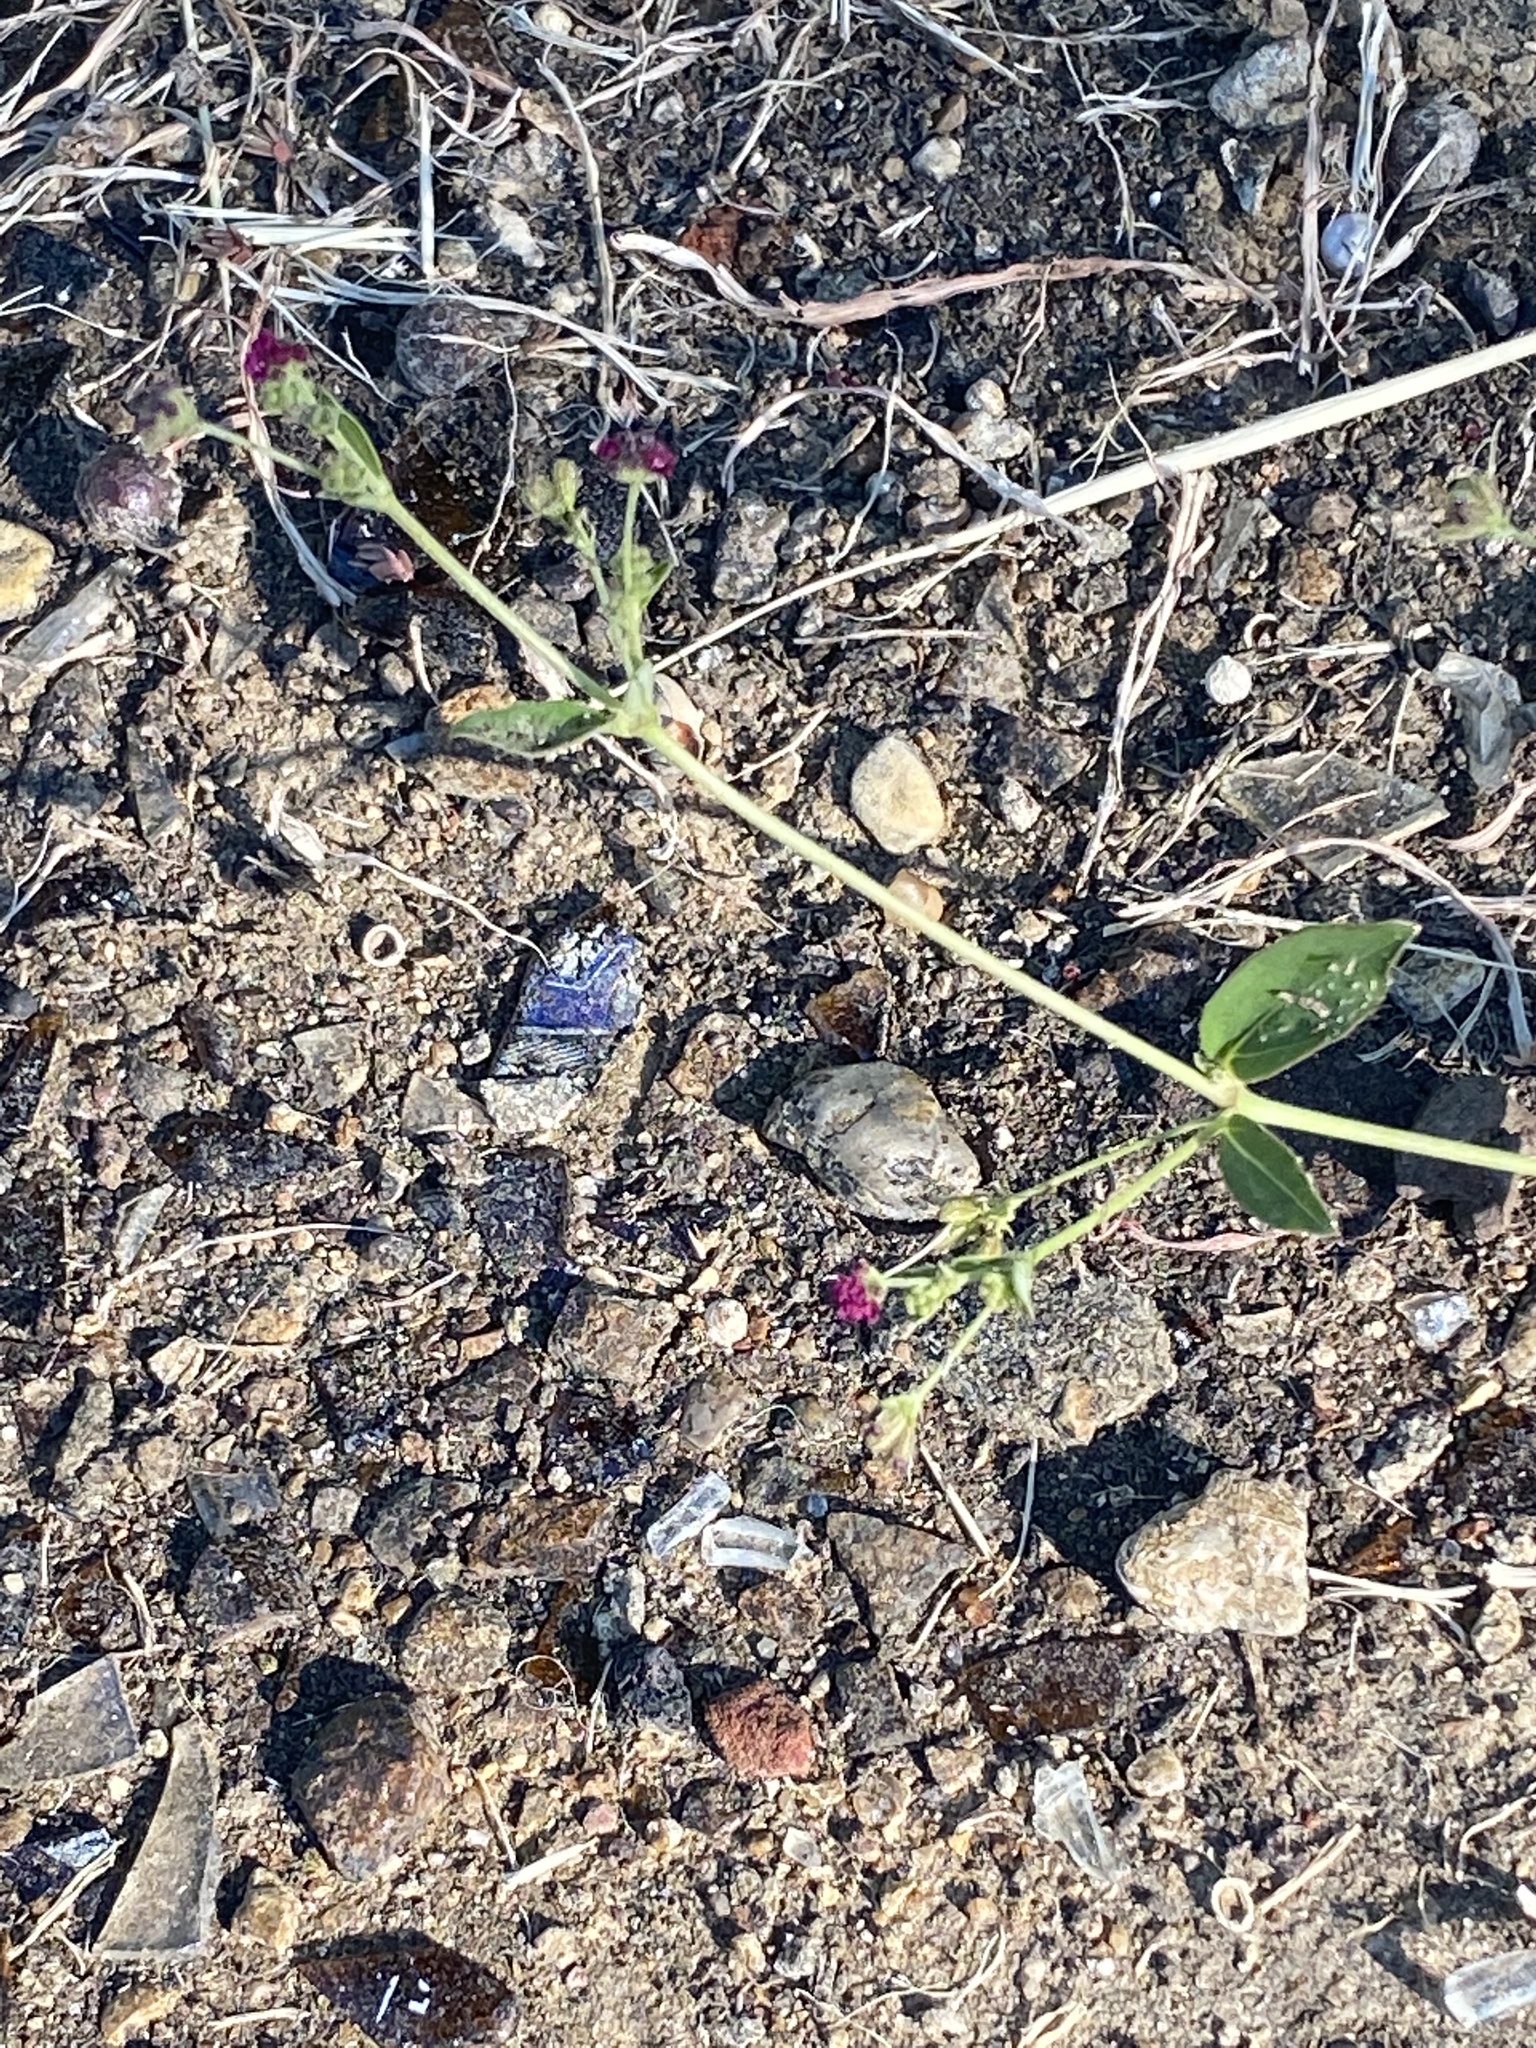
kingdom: Plantae
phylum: Tracheophyta
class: Magnoliopsida
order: Caryophyllales
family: Nyctaginaceae
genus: Boerhavia
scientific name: Boerhavia coccinea
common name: Scarlet spiderling
